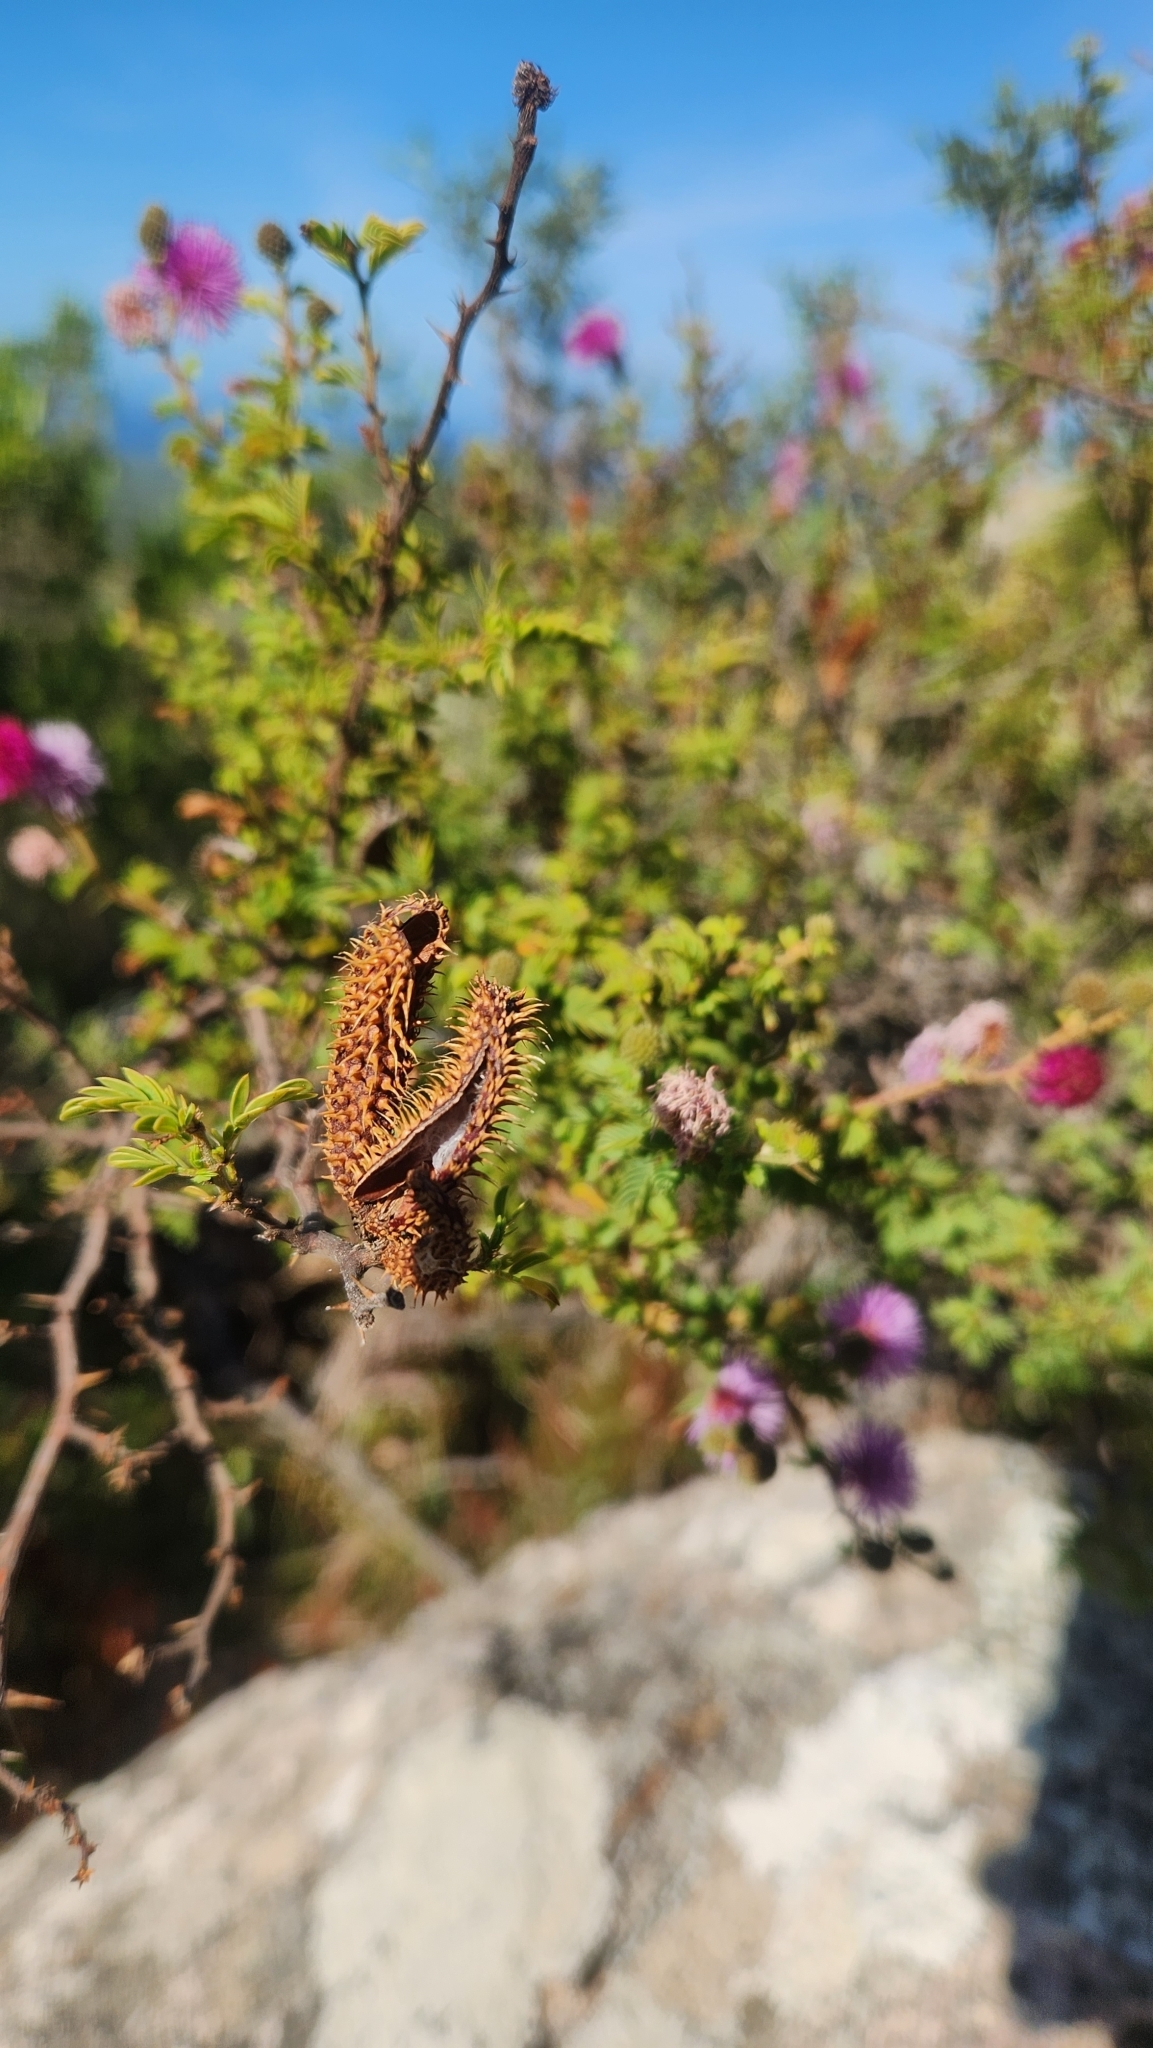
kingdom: Plantae
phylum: Tracheophyta
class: Magnoliopsida
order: Fabales
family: Fabaceae
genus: Mimosa
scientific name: Mimosa australis
